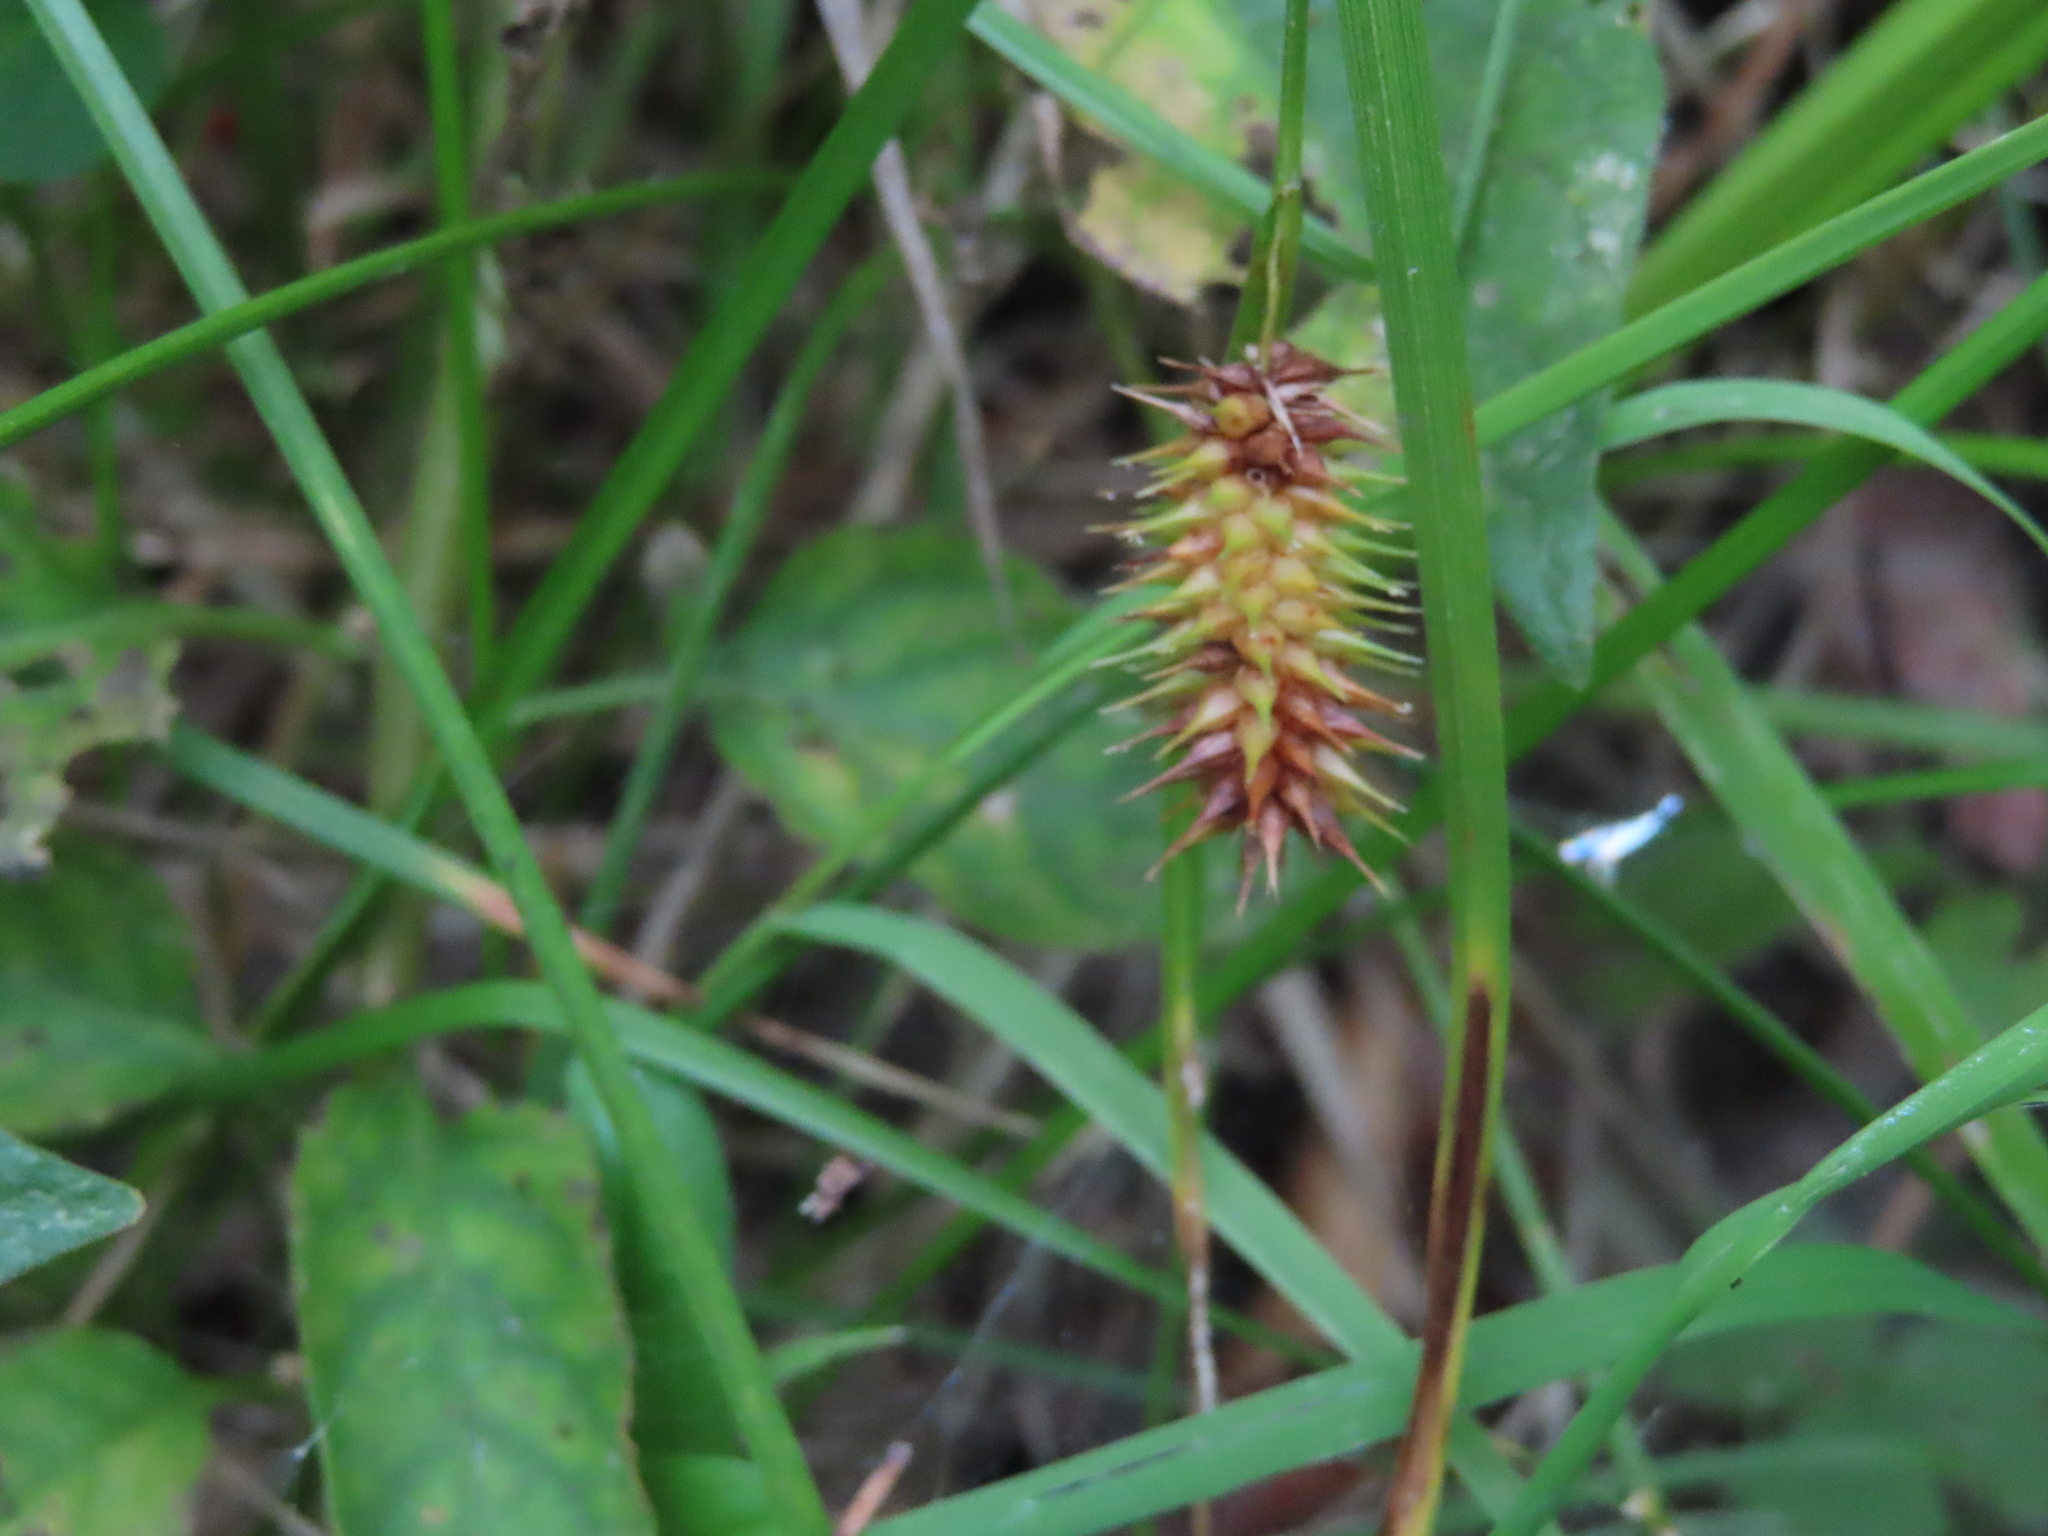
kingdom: Plantae
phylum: Tracheophyta
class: Liliopsida
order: Poales
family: Cyperaceae
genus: Carex
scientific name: Carex hystericina
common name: Bottlebrush sedge
